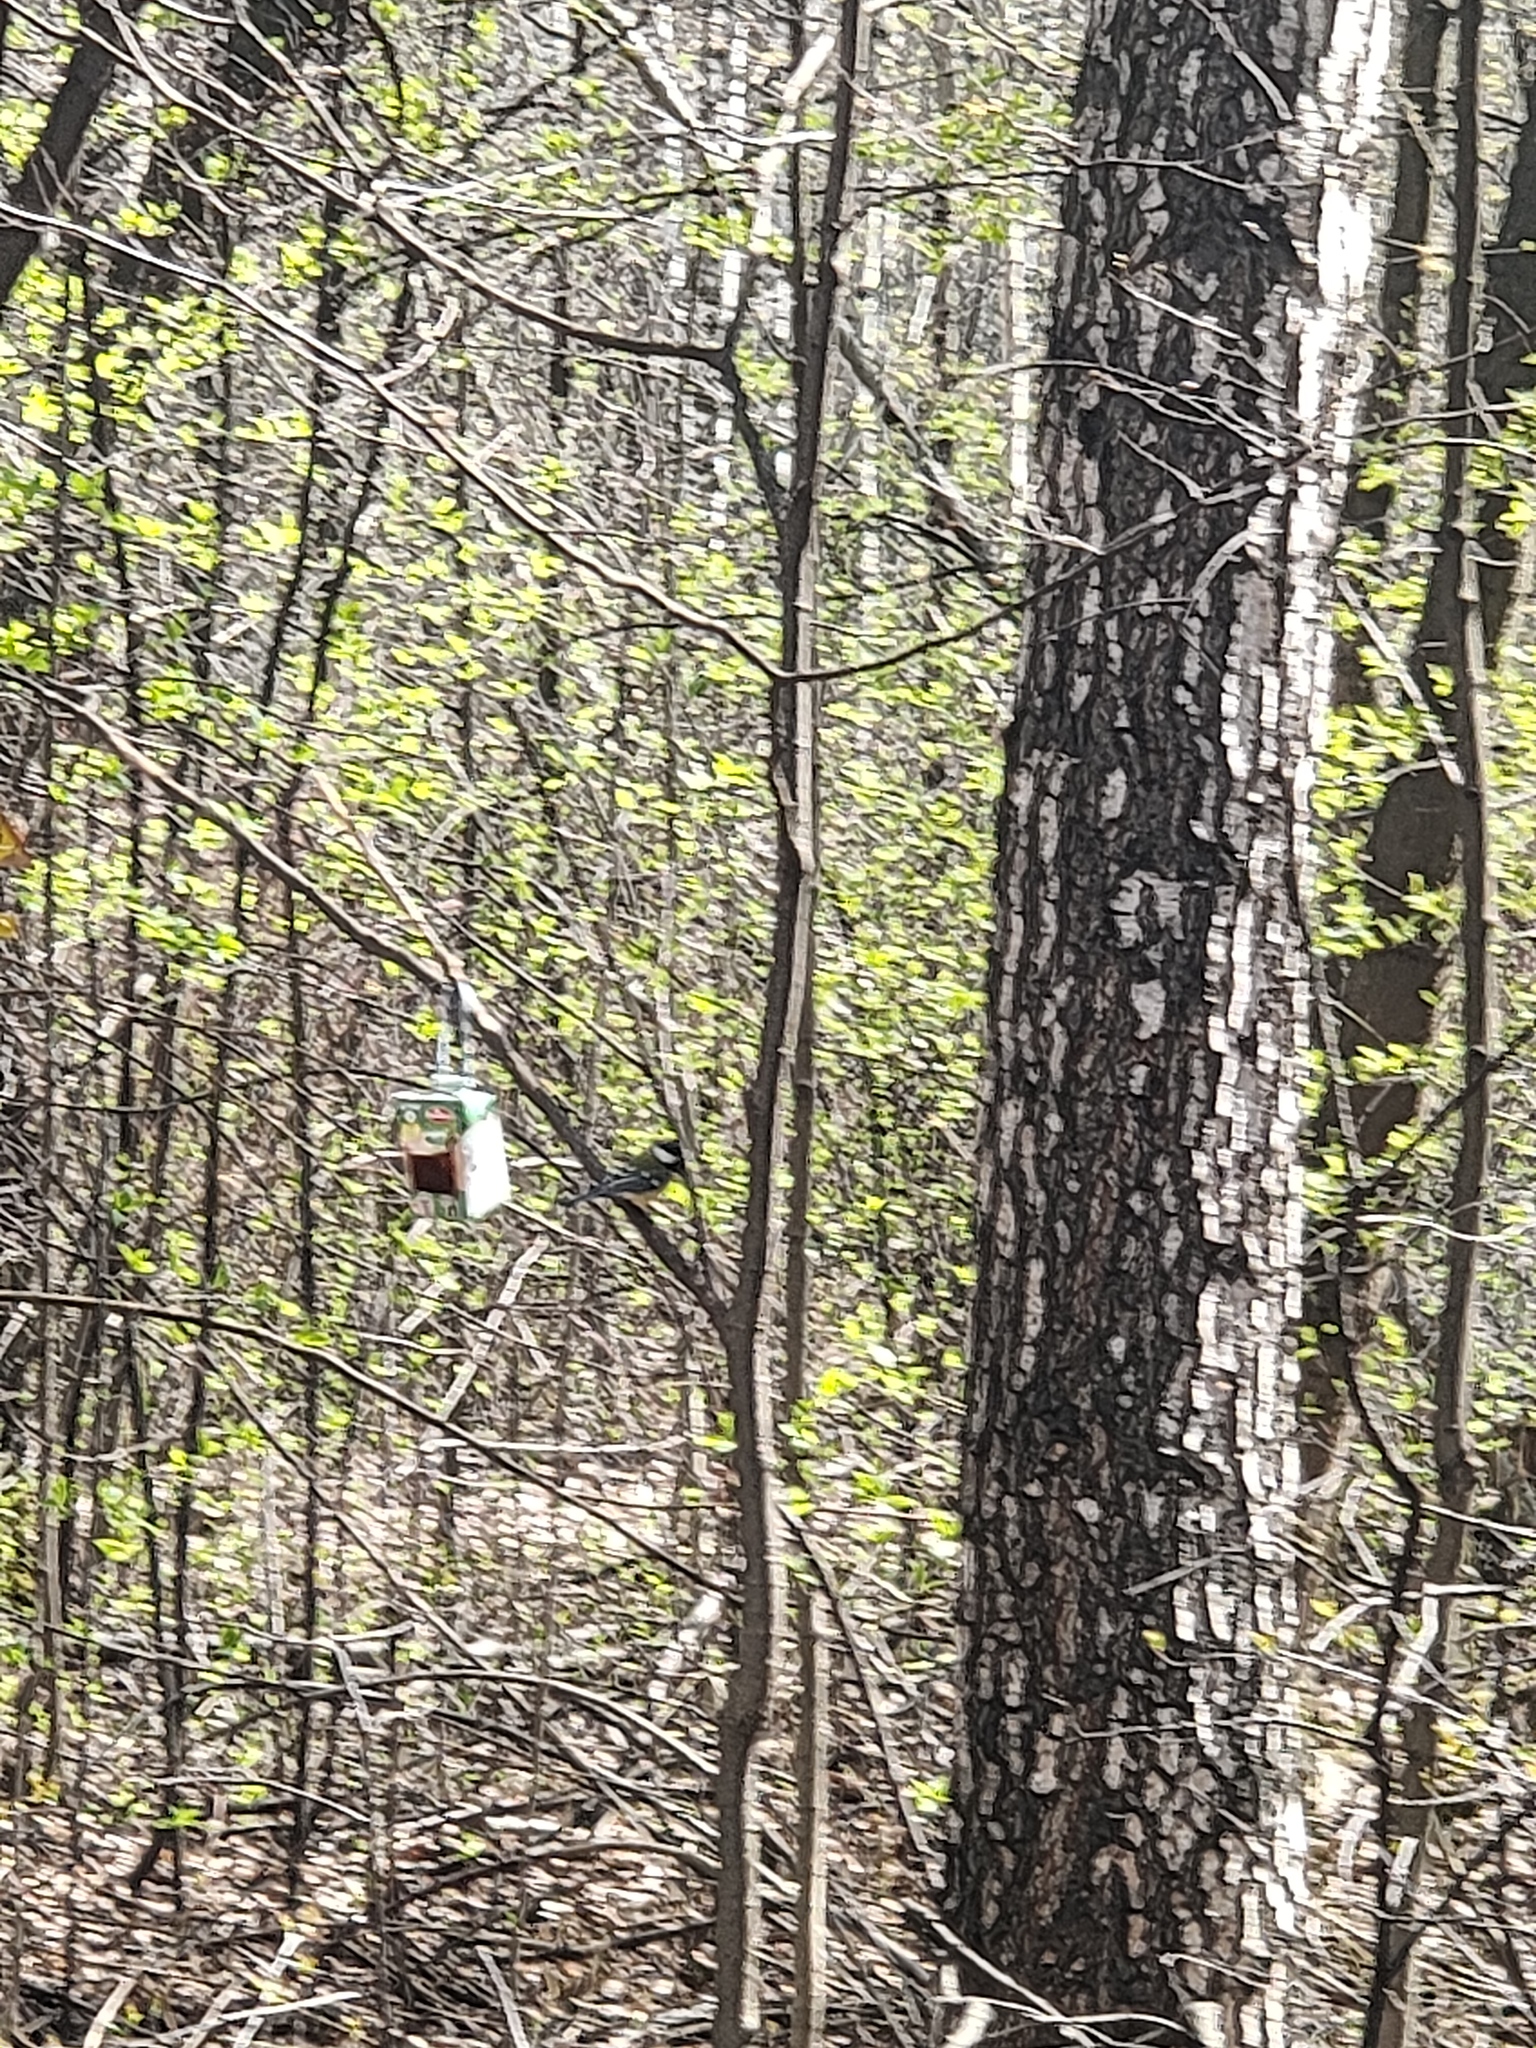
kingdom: Animalia
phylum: Chordata
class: Aves
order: Passeriformes
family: Paridae
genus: Parus
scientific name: Parus major
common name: Great tit
